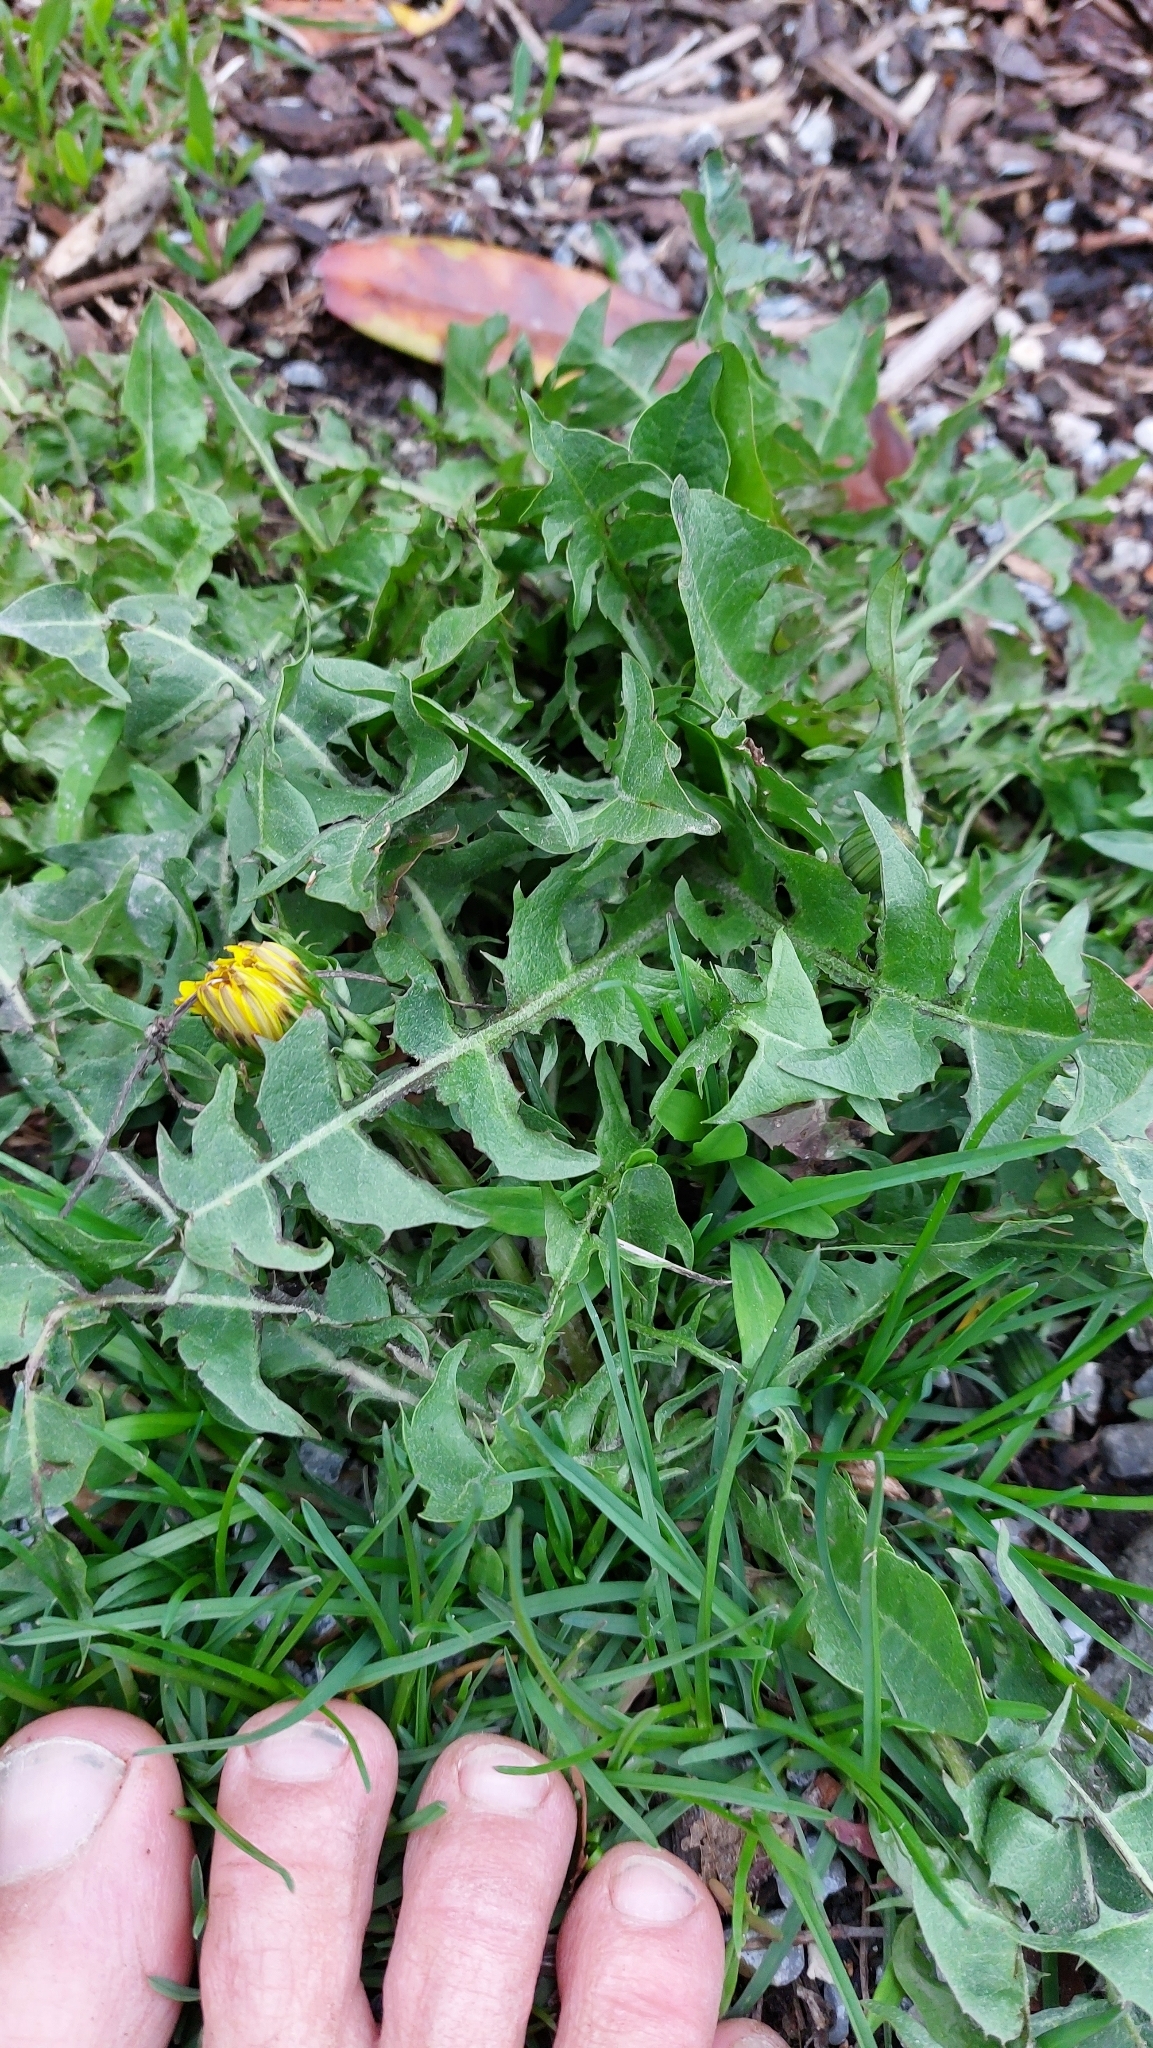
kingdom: Plantae
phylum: Tracheophyta
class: Magnoliopsida
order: Asterales
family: Asteraceae
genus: Taraxacum
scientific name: Taraxacum
